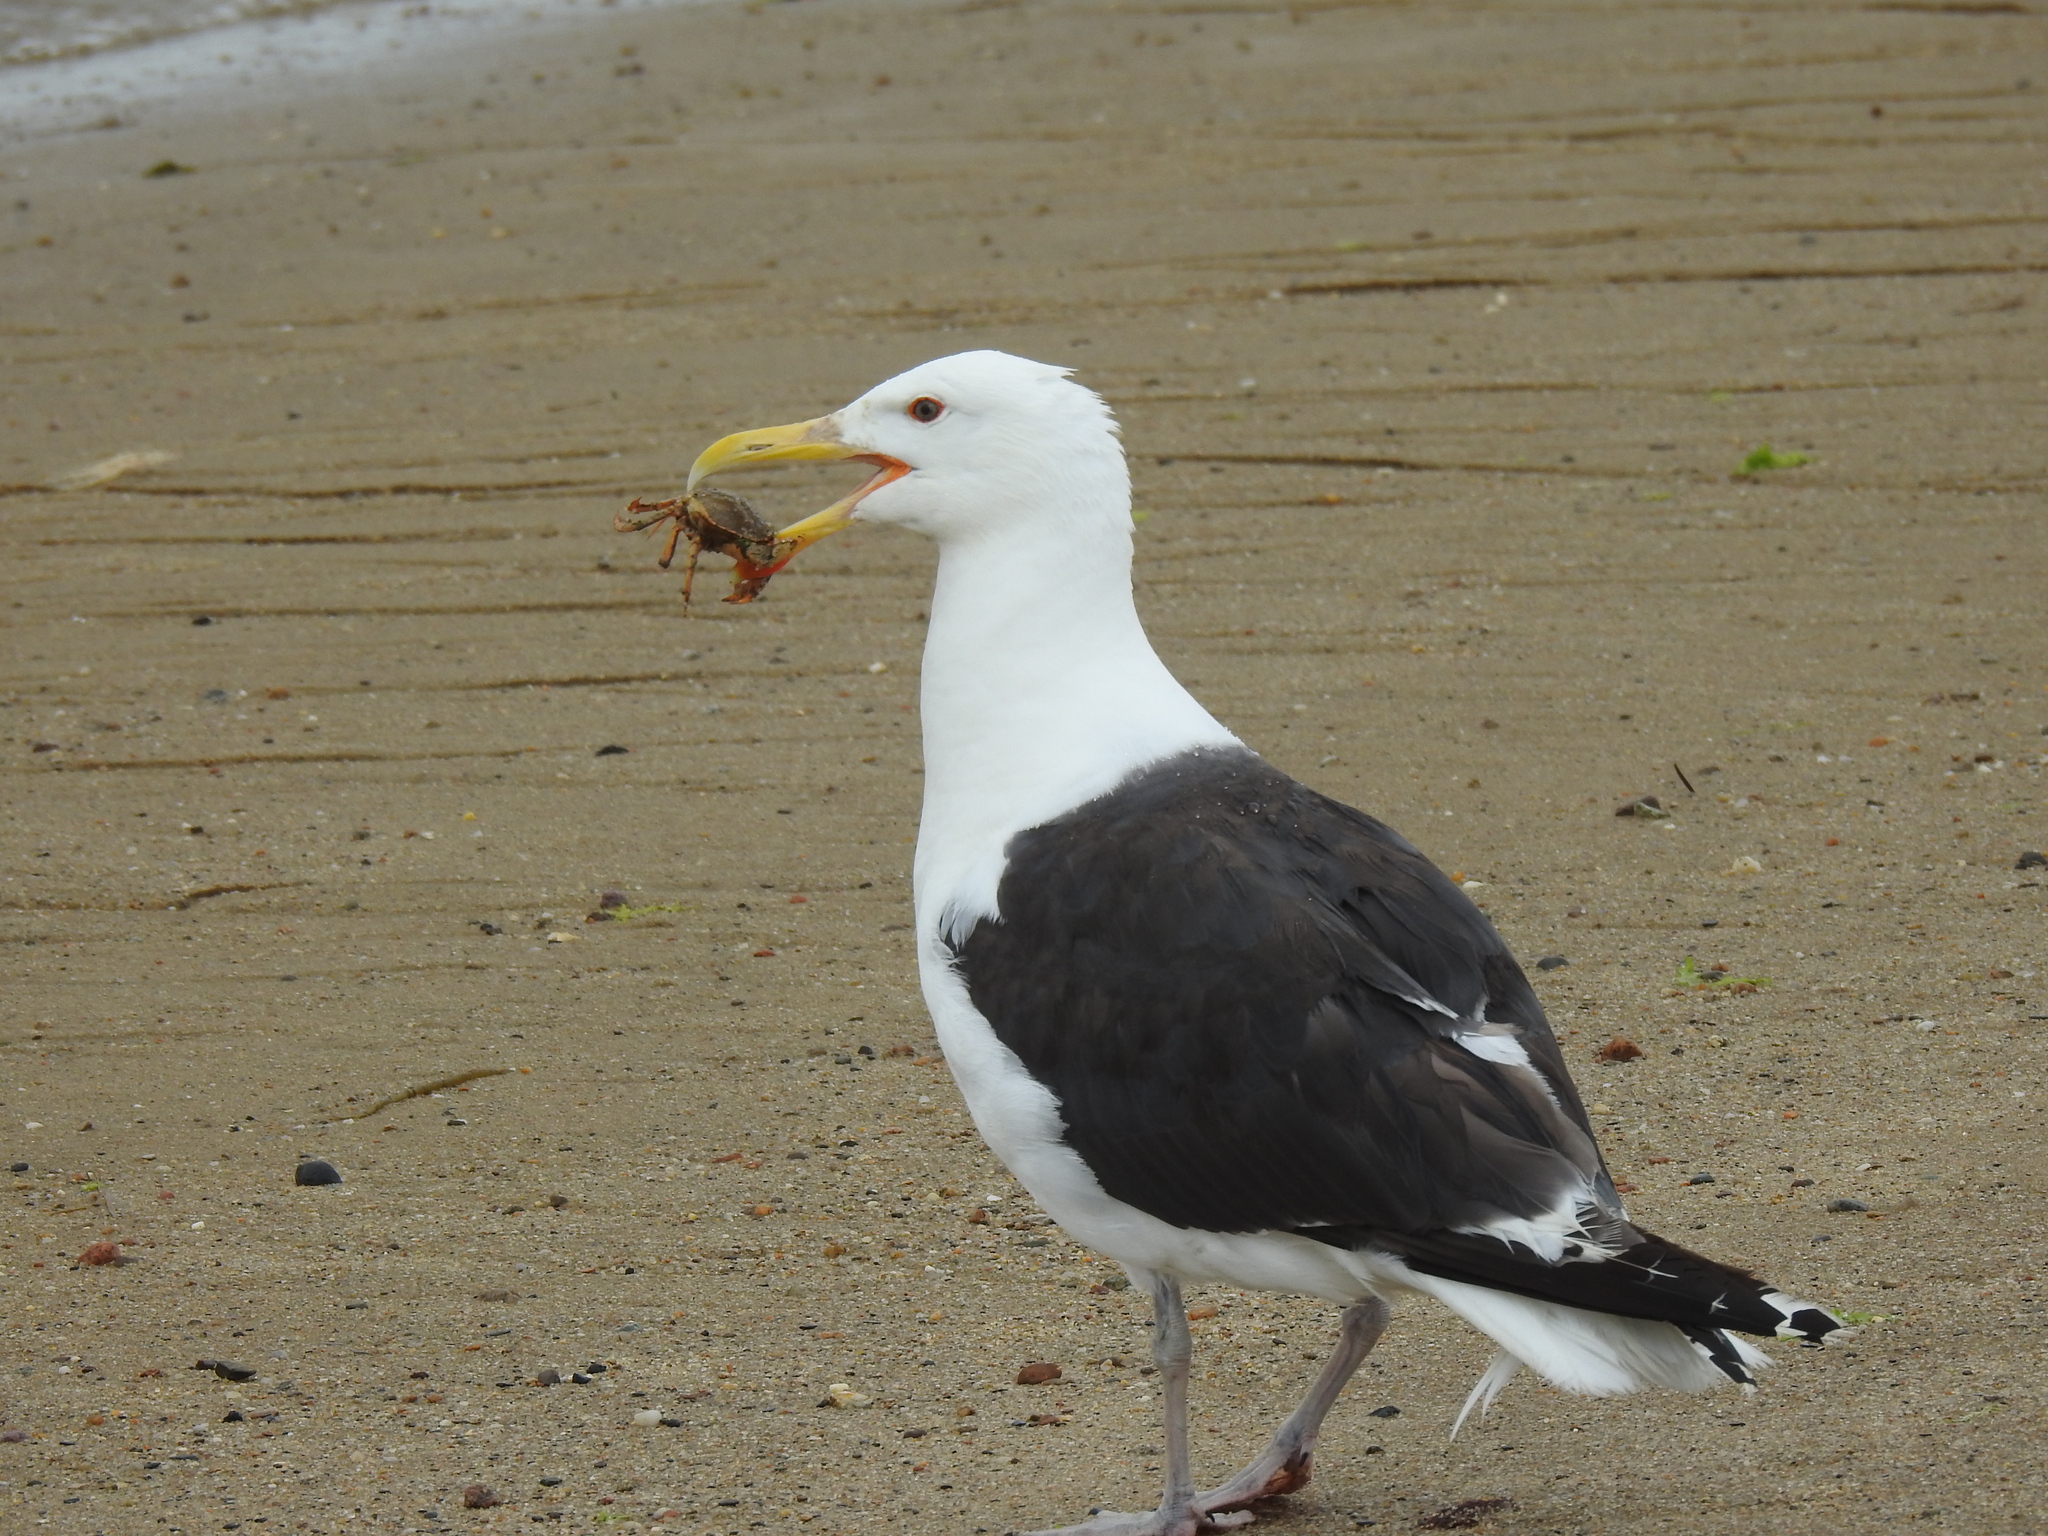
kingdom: Animalia
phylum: Chordata
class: Aves
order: Charadriiformes
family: Laridae
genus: Larus
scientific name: Larus marinus
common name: Great black-backed gull
